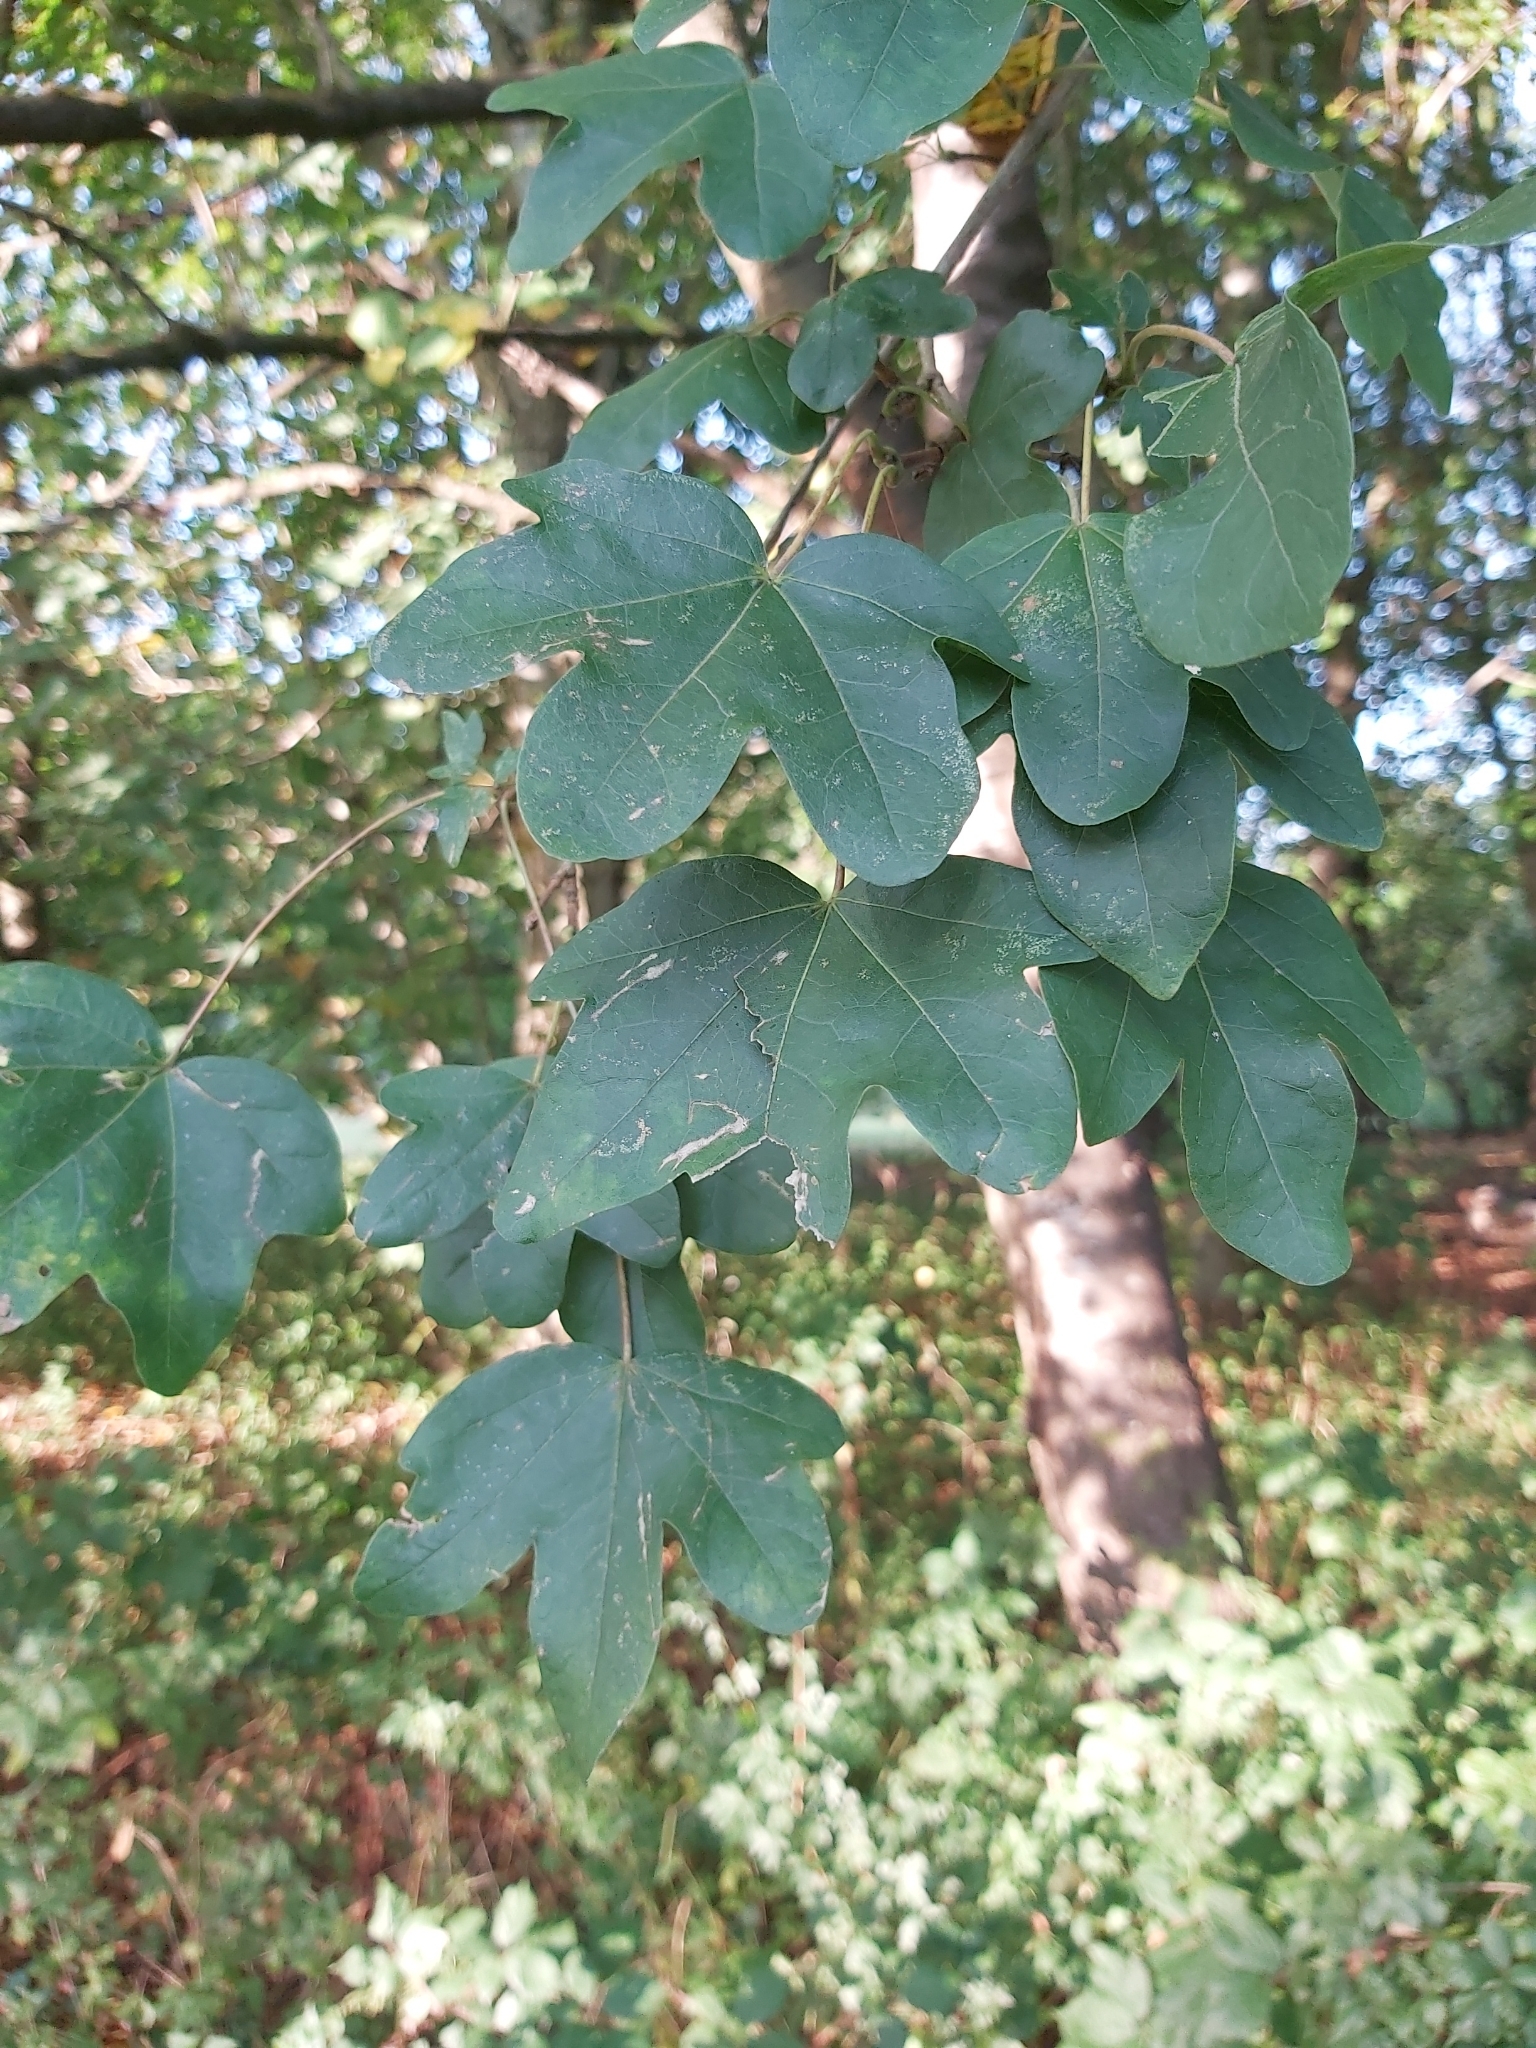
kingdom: Plantae
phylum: Tracheophyta
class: Magnoliopsida
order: Sapindales
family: Sapindaceae
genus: Acer
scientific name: Acer campestre
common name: Field maple
